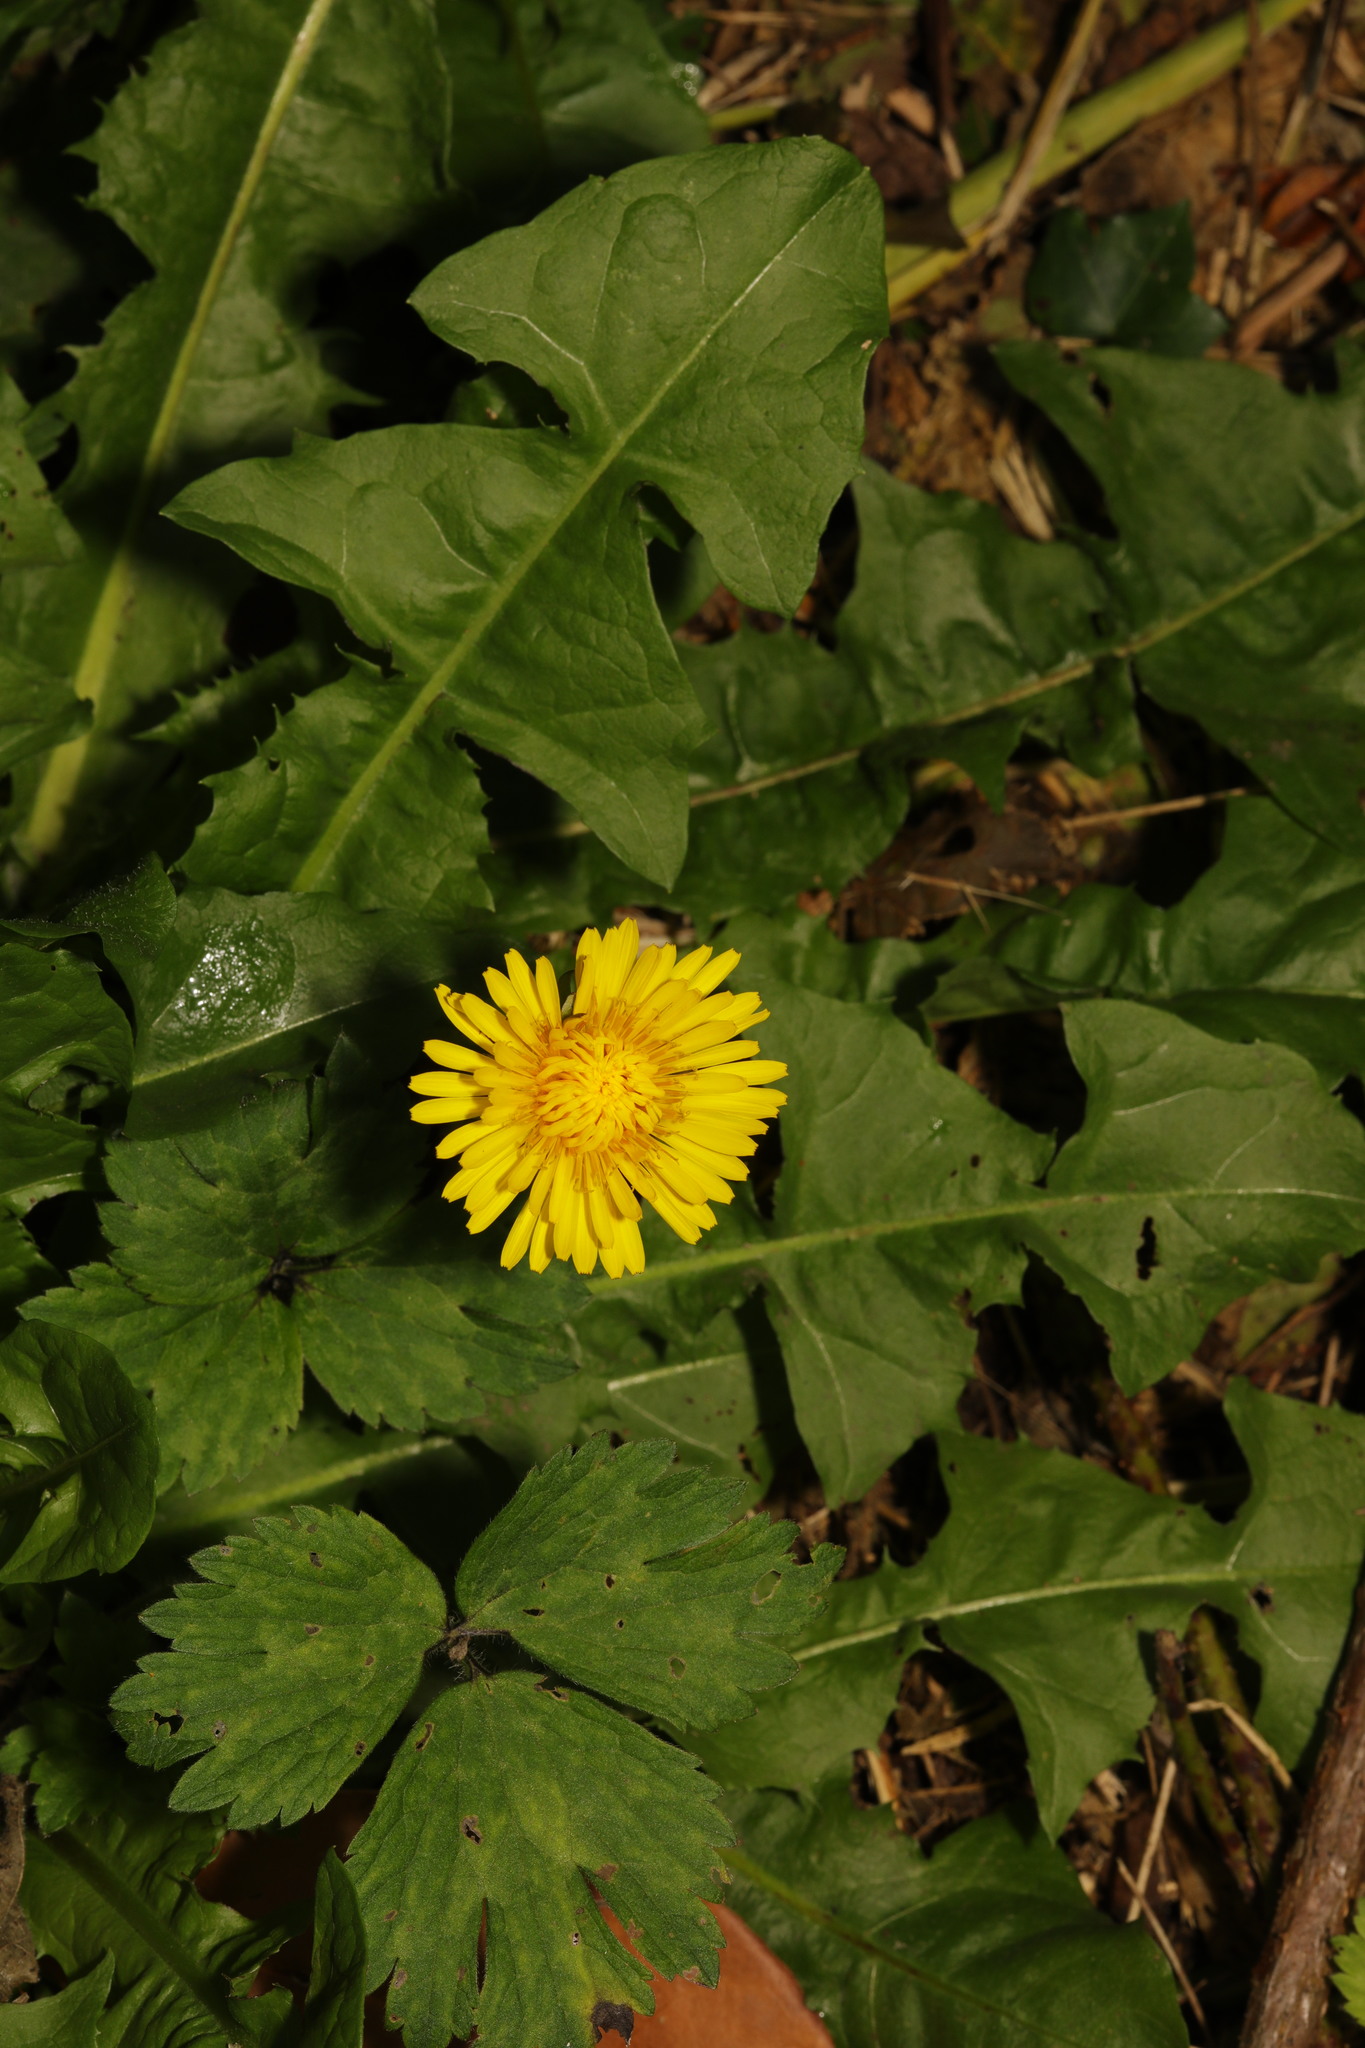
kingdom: Plantae
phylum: Tracheophyta
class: Magnoliopsida
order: Asterales
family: Asteraceae
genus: Taraxacum
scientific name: Taraxacum officinale
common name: Common dandelion
